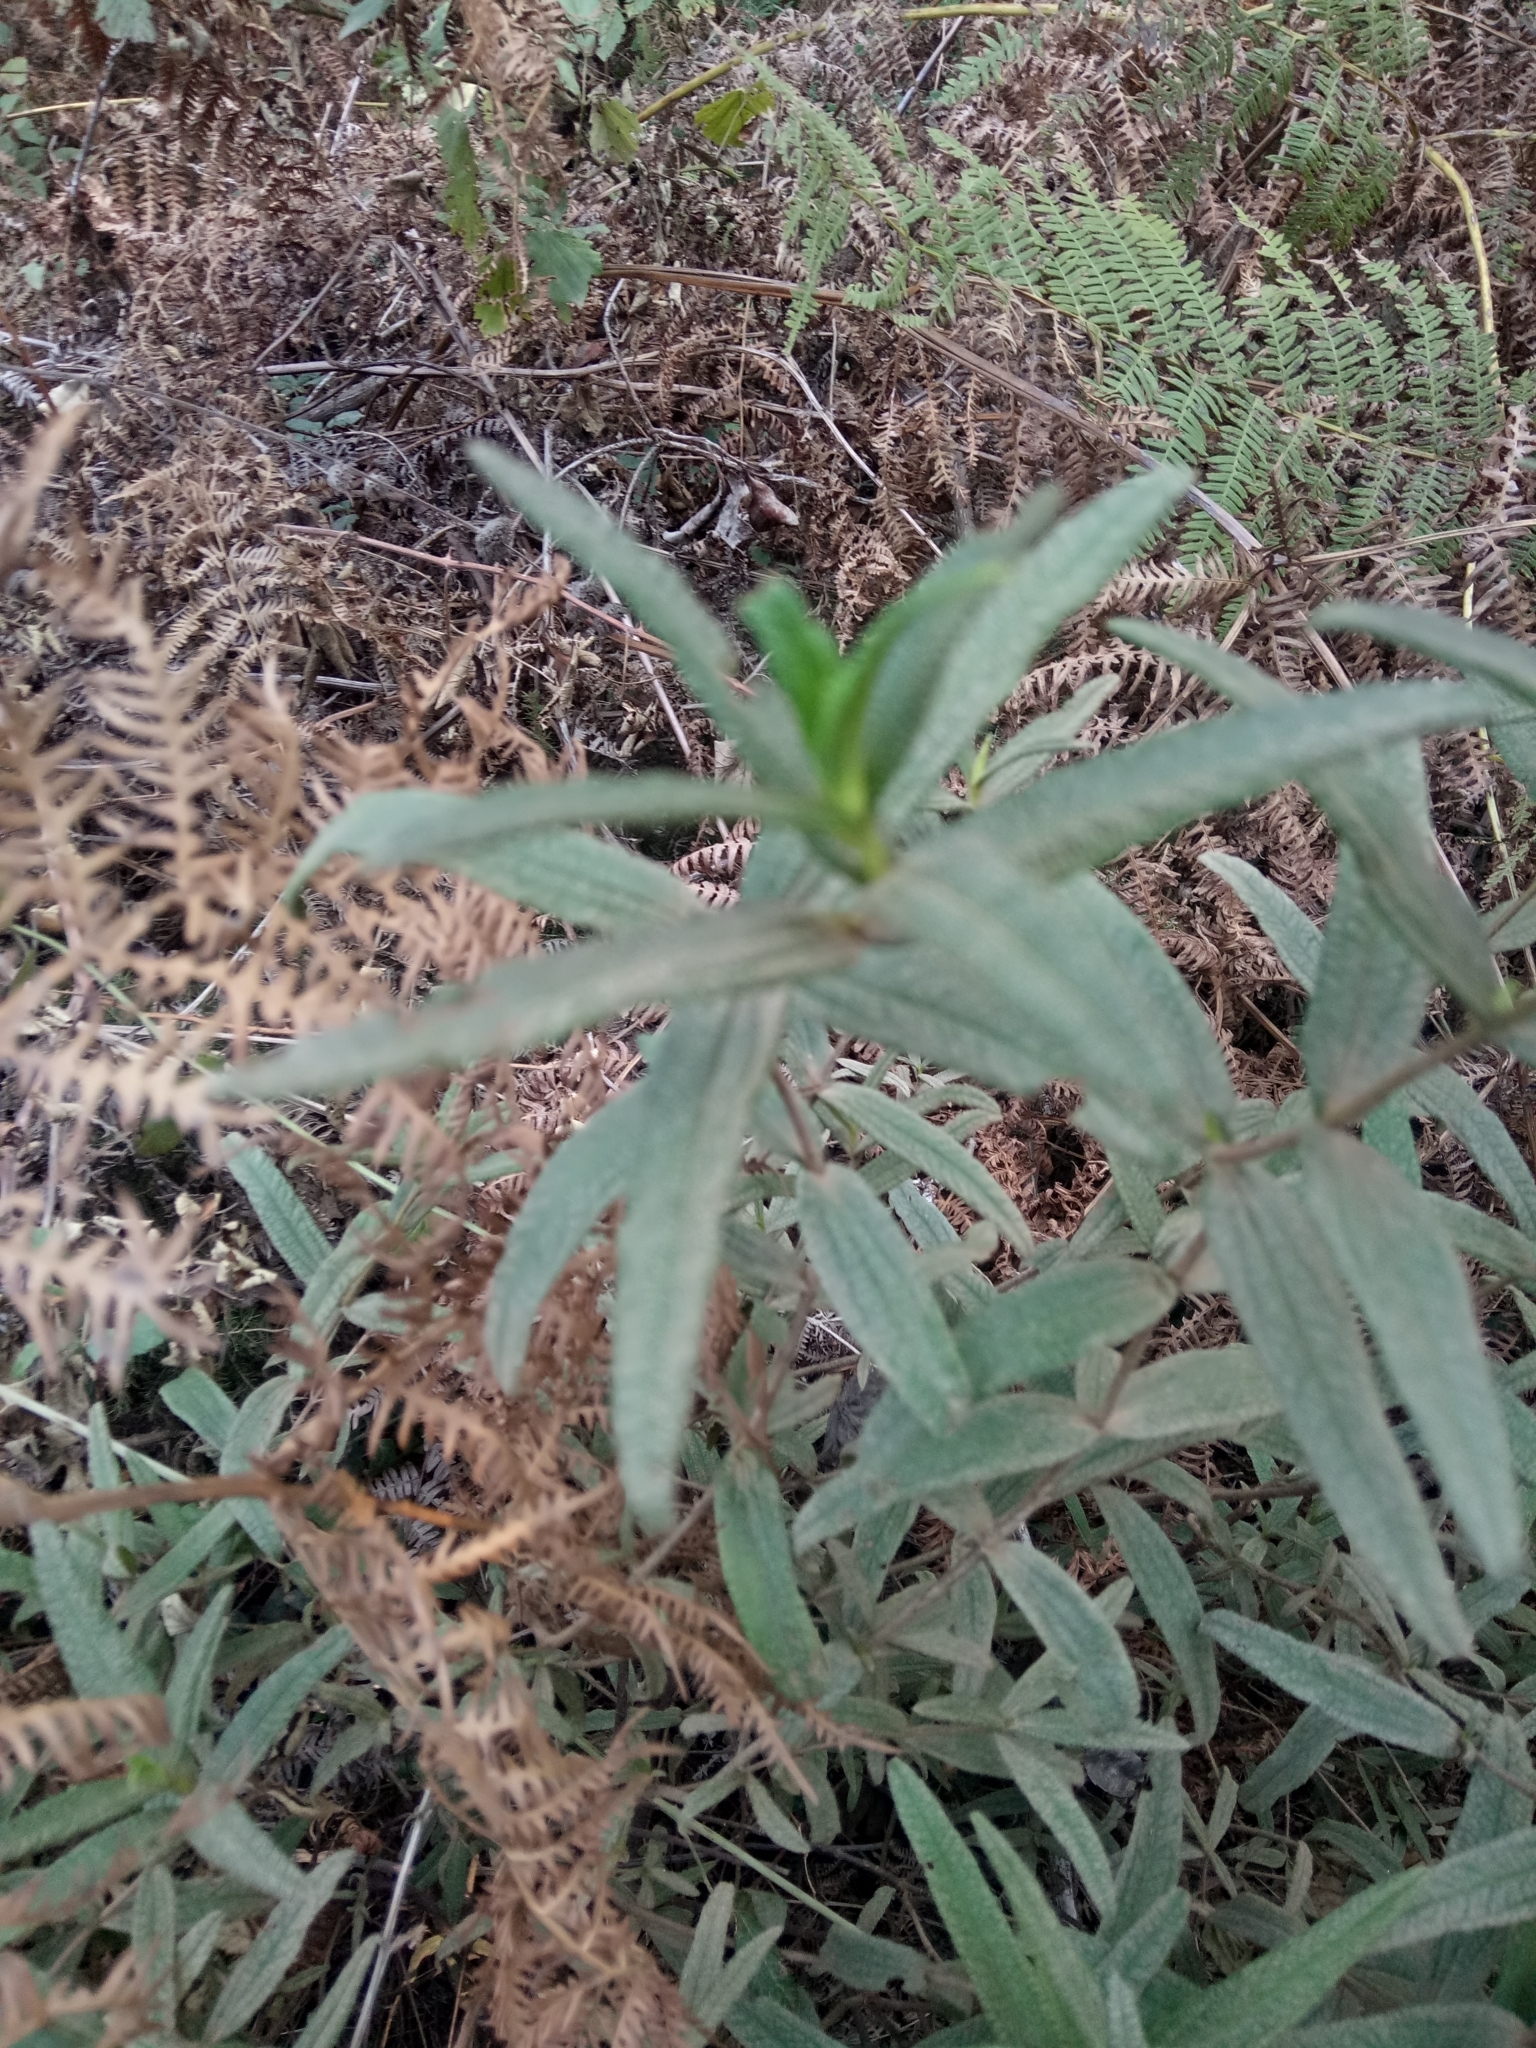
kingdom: Plantae
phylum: Tracheophyta
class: Magnoliopsida
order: Malvales
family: Cistaceae
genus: Cistus
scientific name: Cistus monspeliensis
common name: Montpelier cistus
